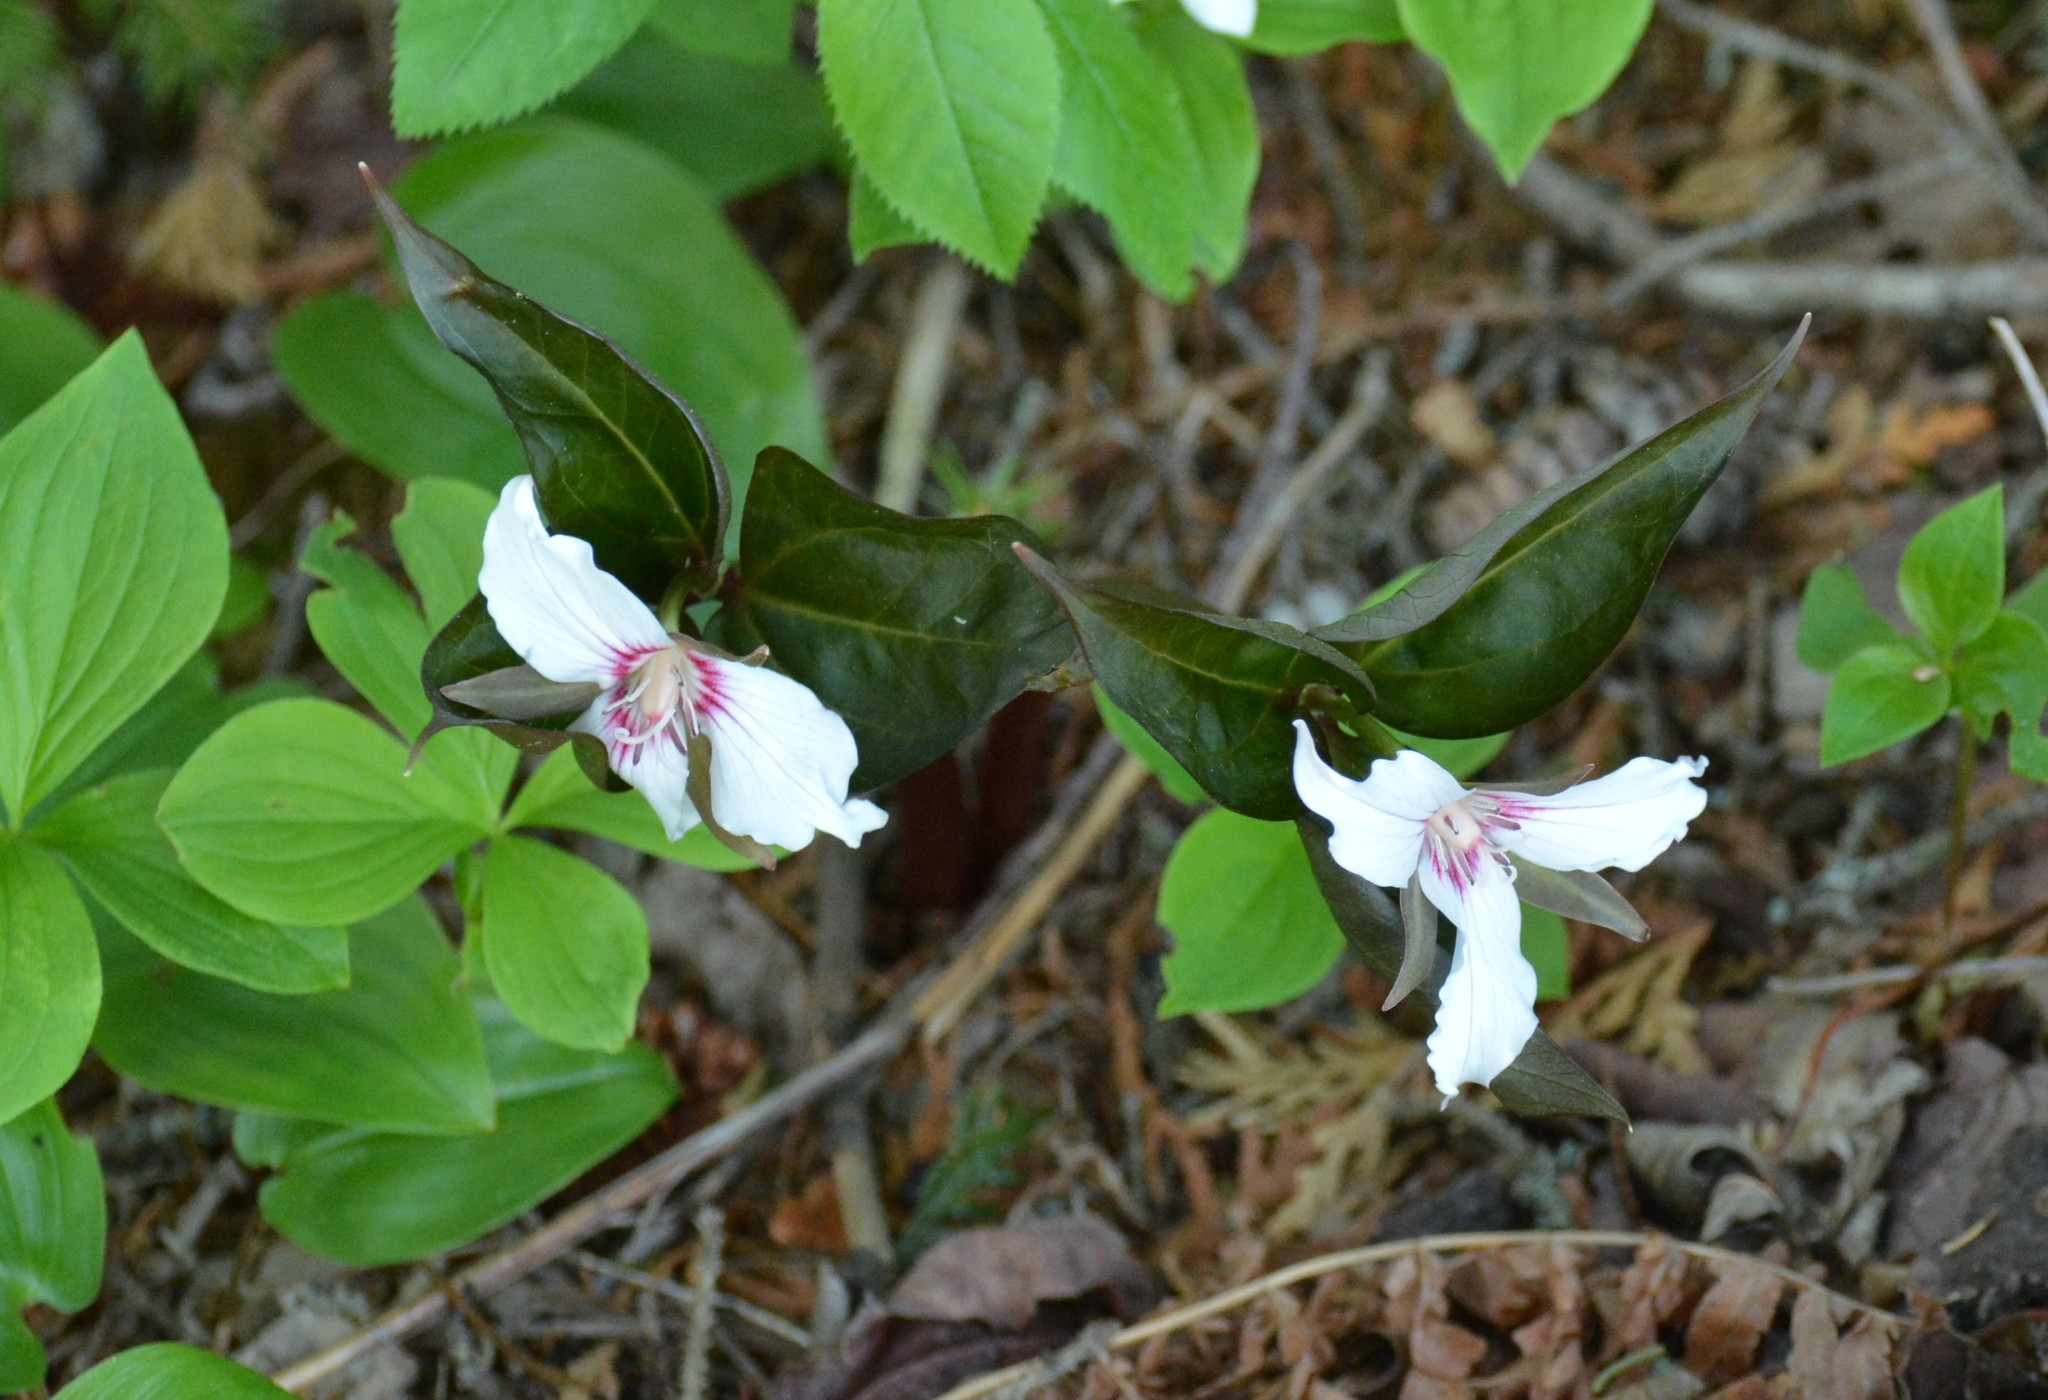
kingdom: Plantae
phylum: Tracheophyta
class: Liliopsida
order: Liliales
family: Melanthiaceae
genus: Trillium
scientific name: Trillium undulatum
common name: Paint trillium
